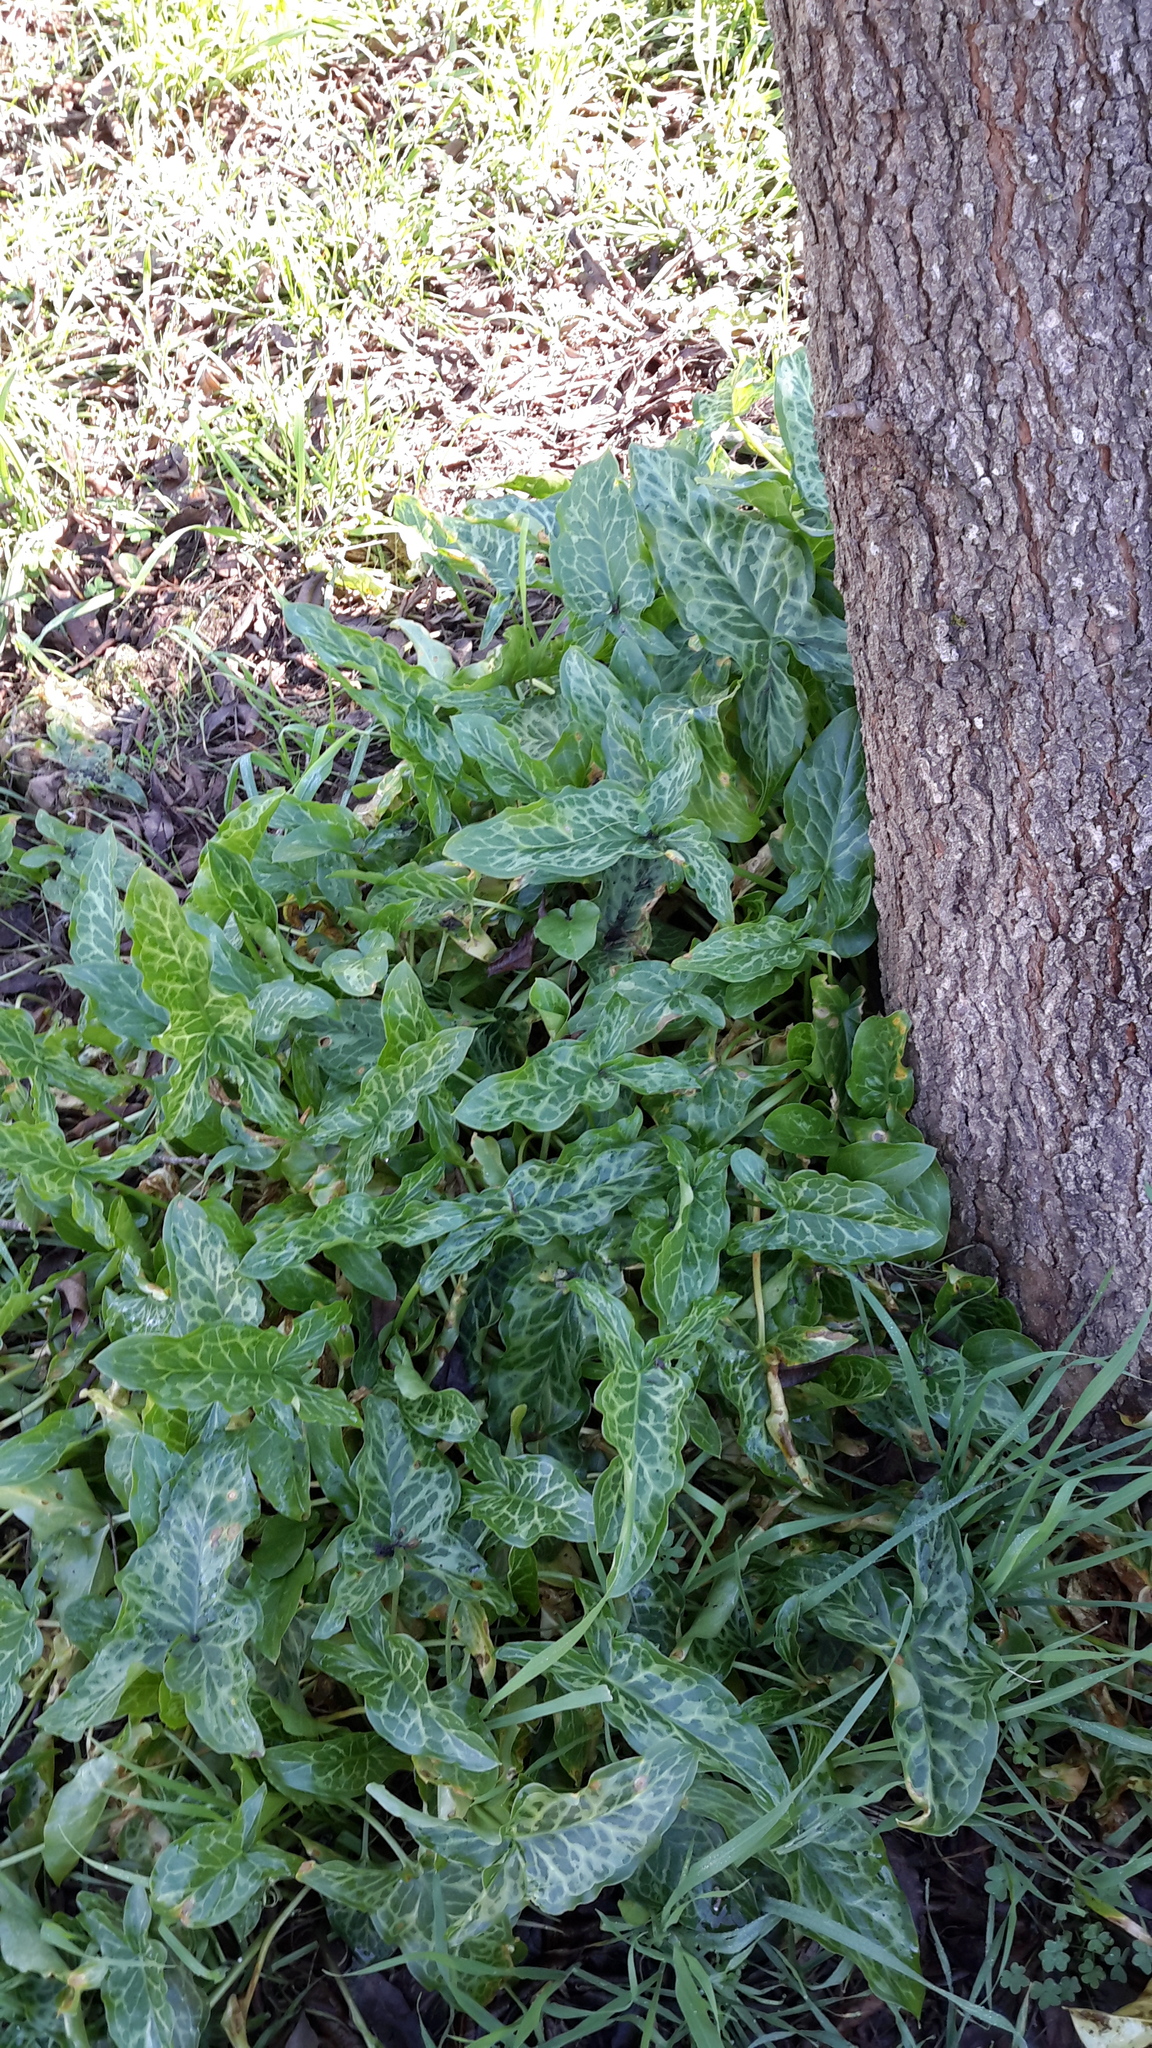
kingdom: Plantae
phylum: Tracheophyta
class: Liliopsida
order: Alismatales
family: Araceae
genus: Arum
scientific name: Arum italicum
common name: Italian lords-and-ladies
